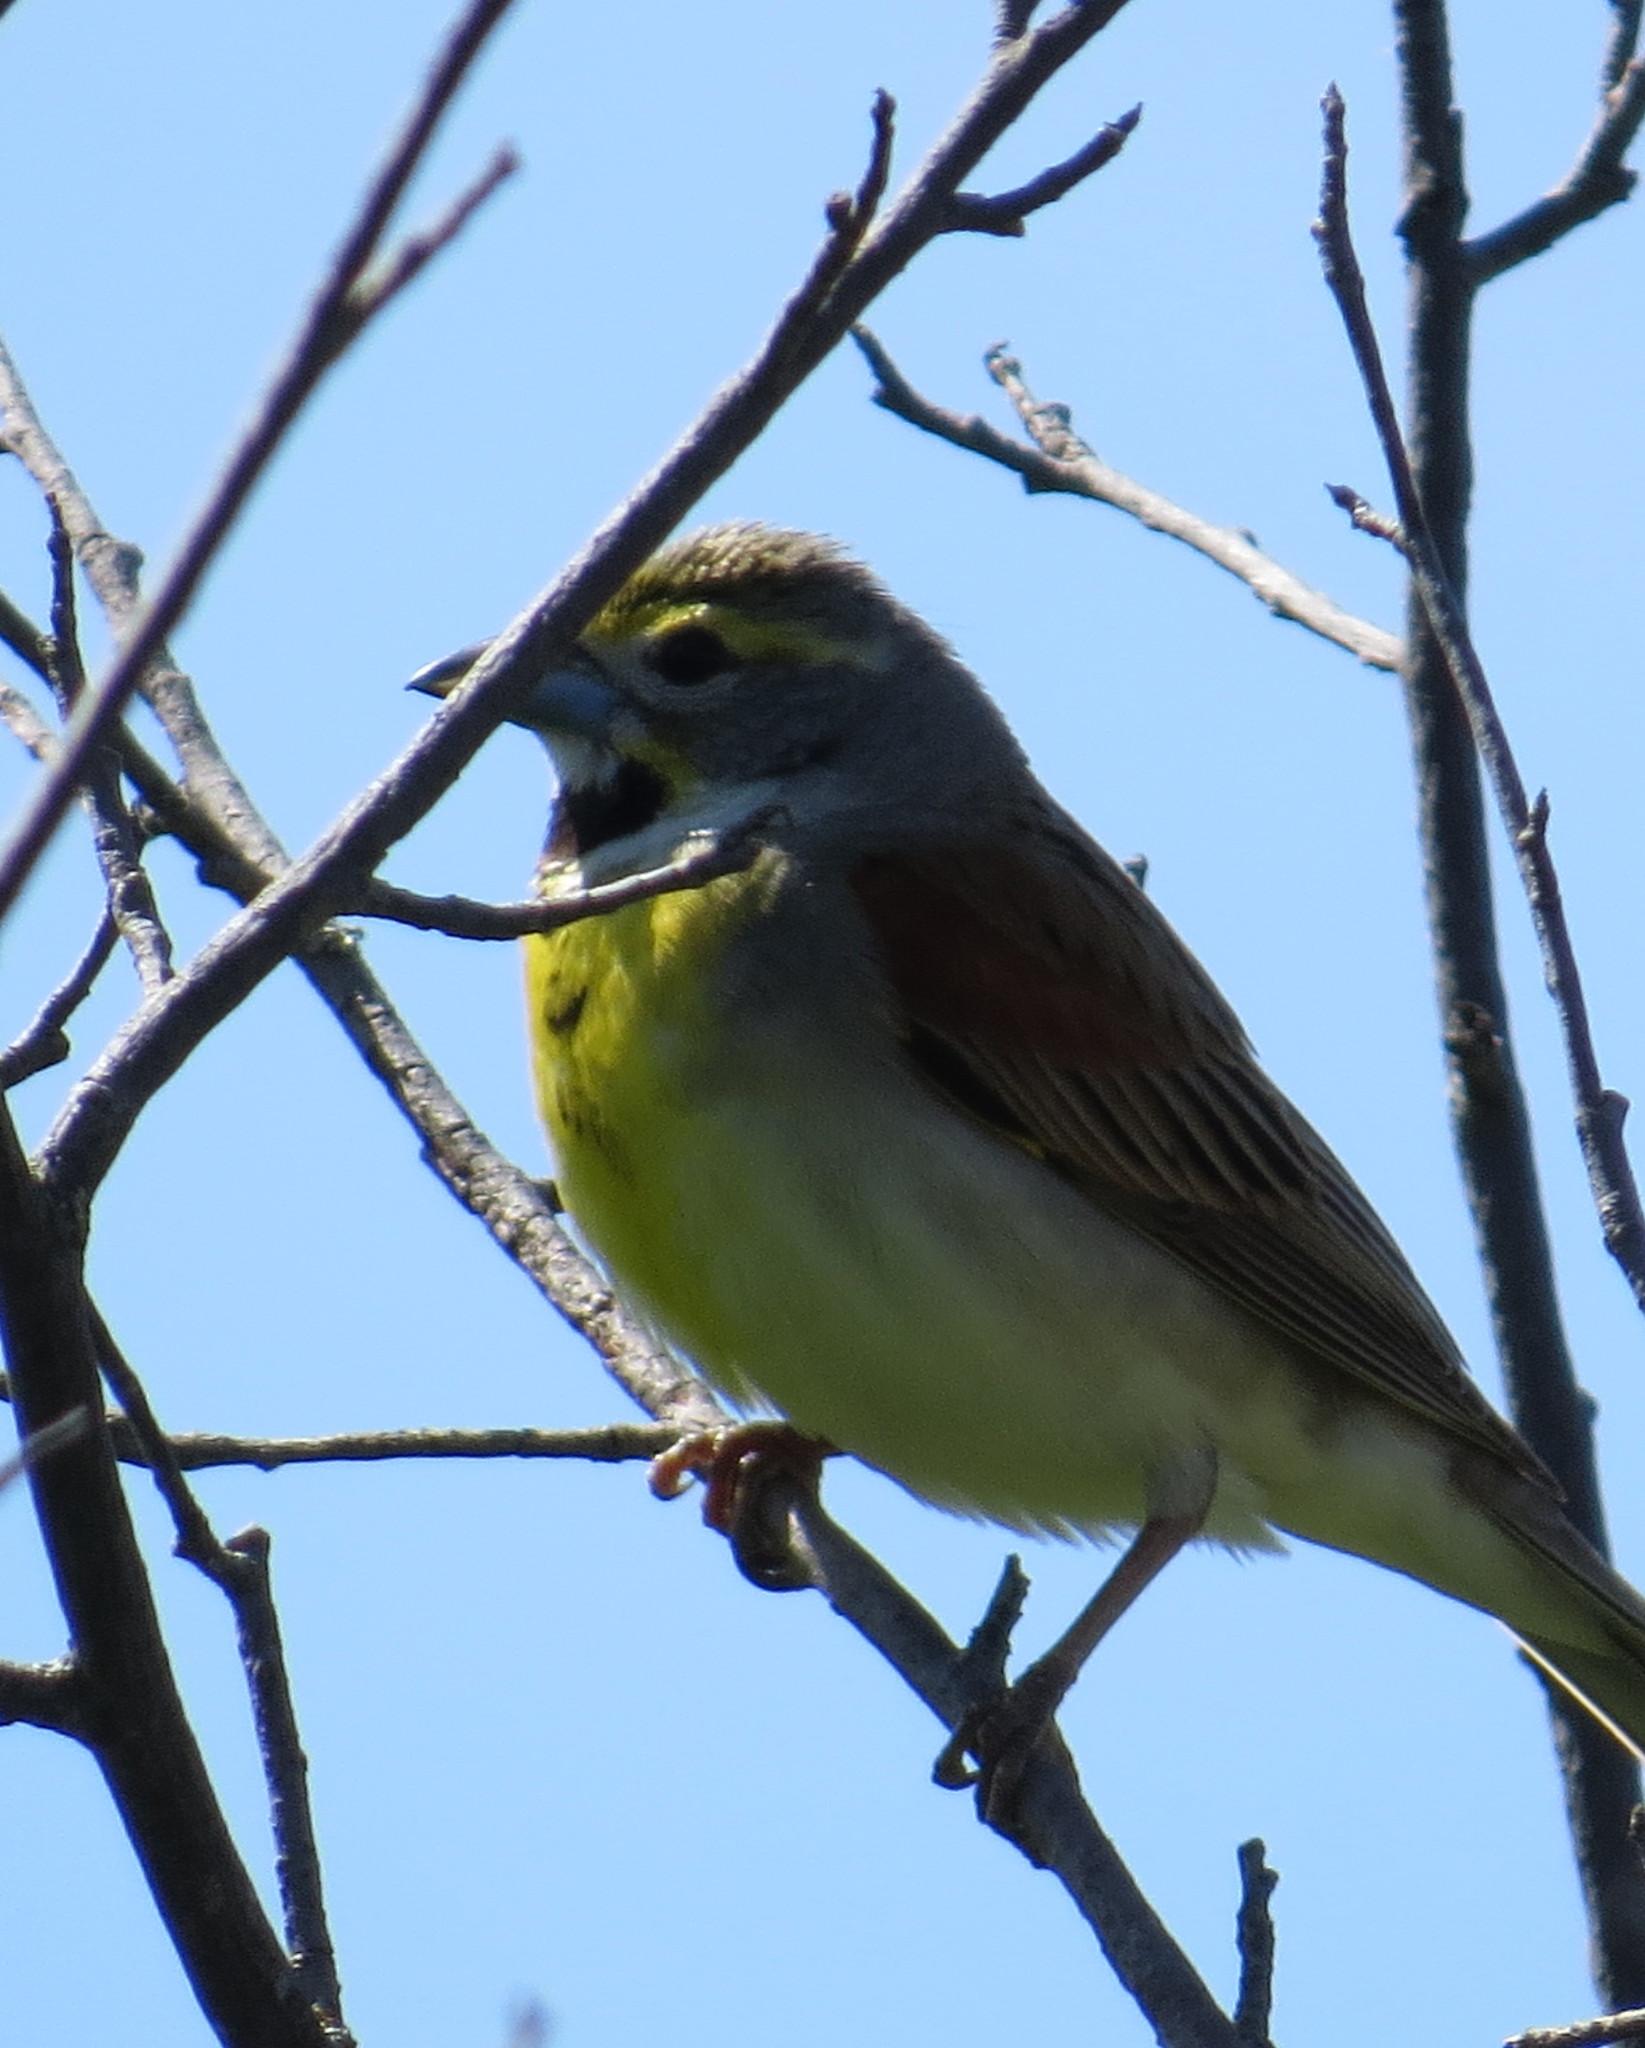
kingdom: Animalia
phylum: Chordata
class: Aves
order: Passeriformes
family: Cardinalidae
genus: Spiza
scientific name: Spiza americana
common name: Dickcissel
